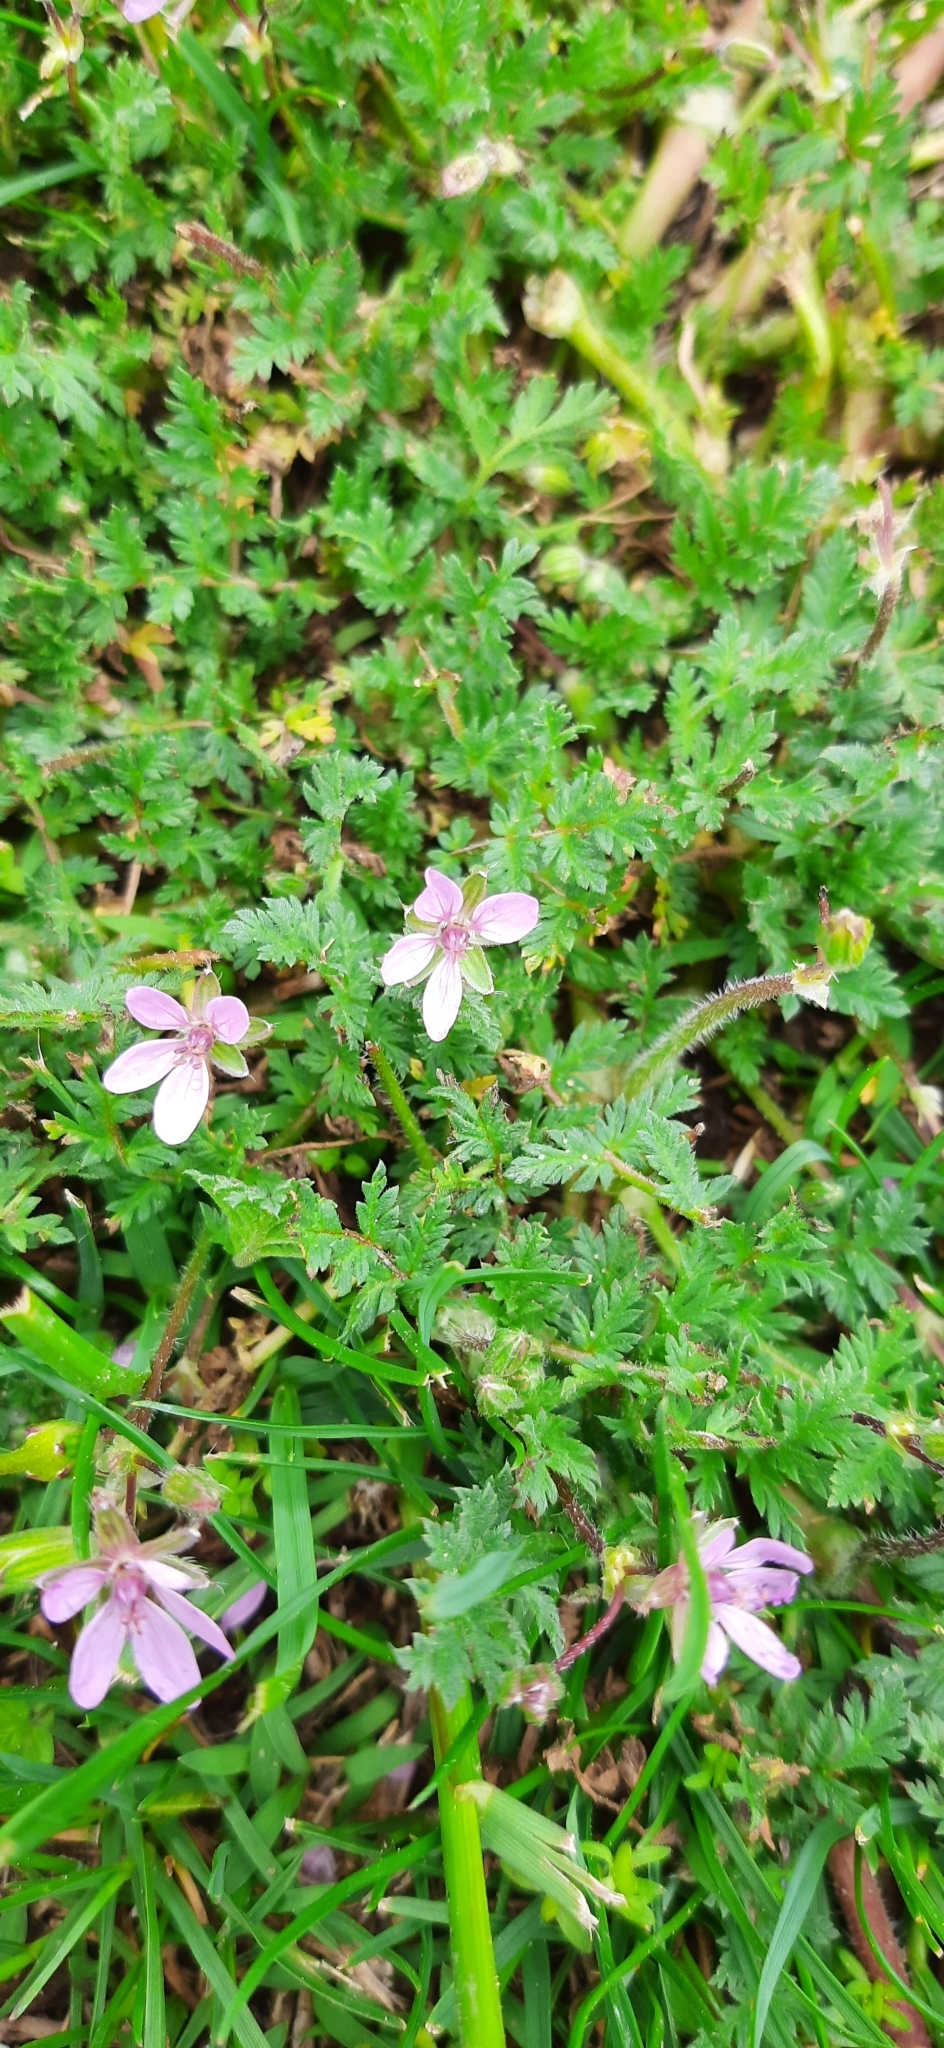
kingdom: Plantae
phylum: Tracheophyta
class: Magnoliopsida
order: Geraniales
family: Geraniaceae
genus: Erodium
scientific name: Erodium cicutarium
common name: Common stork's-bill
